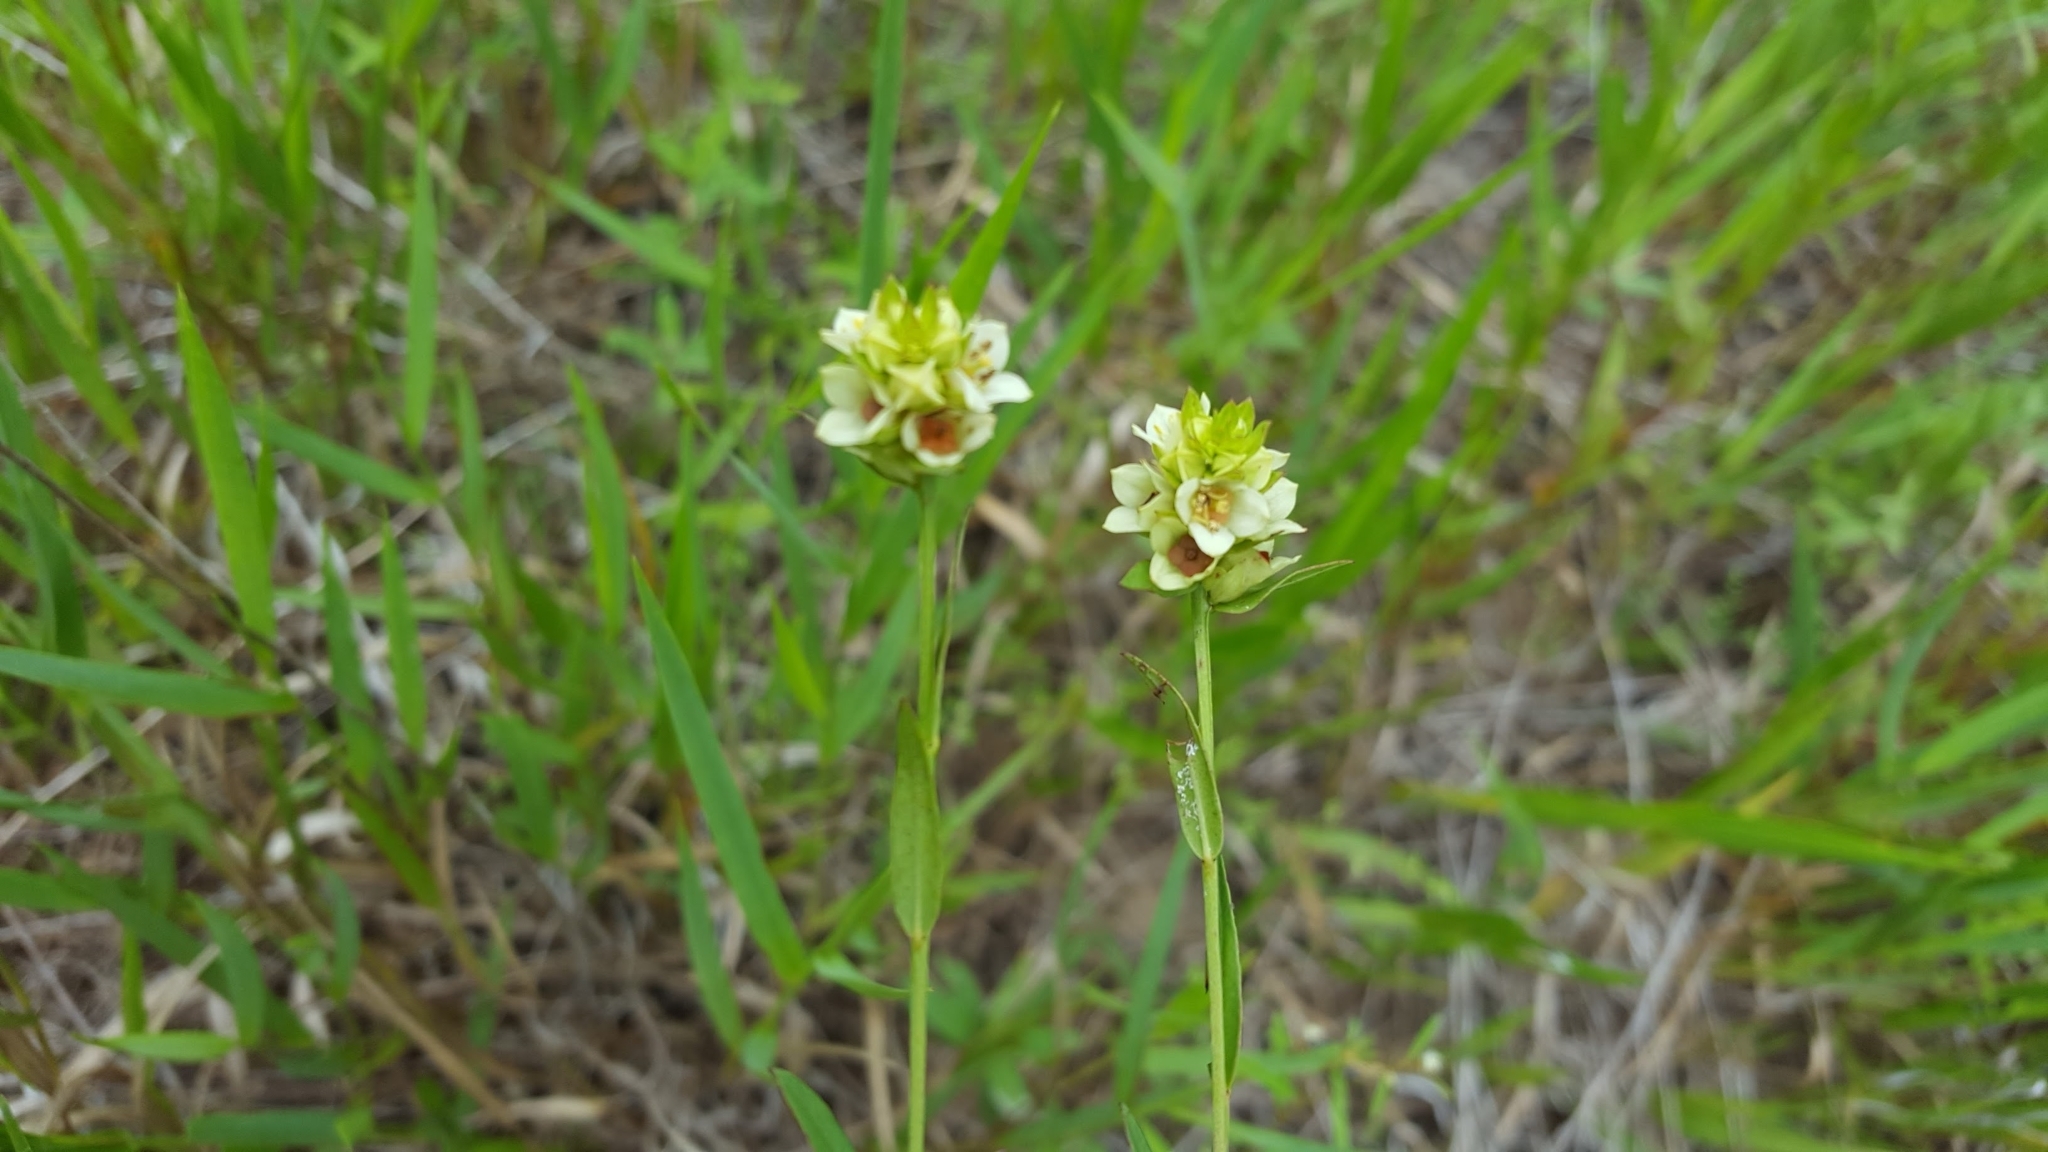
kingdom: Plantae
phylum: Tracheophyta
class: Magnoliopsida
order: Myrtales
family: Onagraceae
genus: Ludwigia
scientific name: Ludwigia suffruticosa
